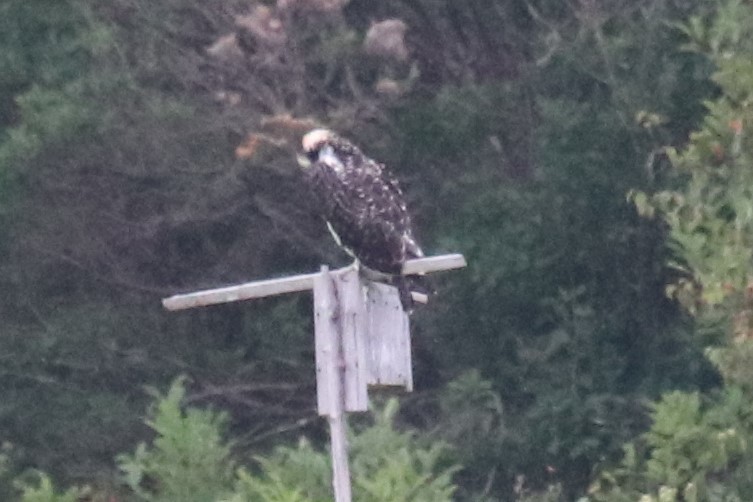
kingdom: Animalia
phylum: Chordata
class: Aves
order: Accipitriformes
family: Pandionidae
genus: Pandion
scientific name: Pandion haliaetus
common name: Osprey
